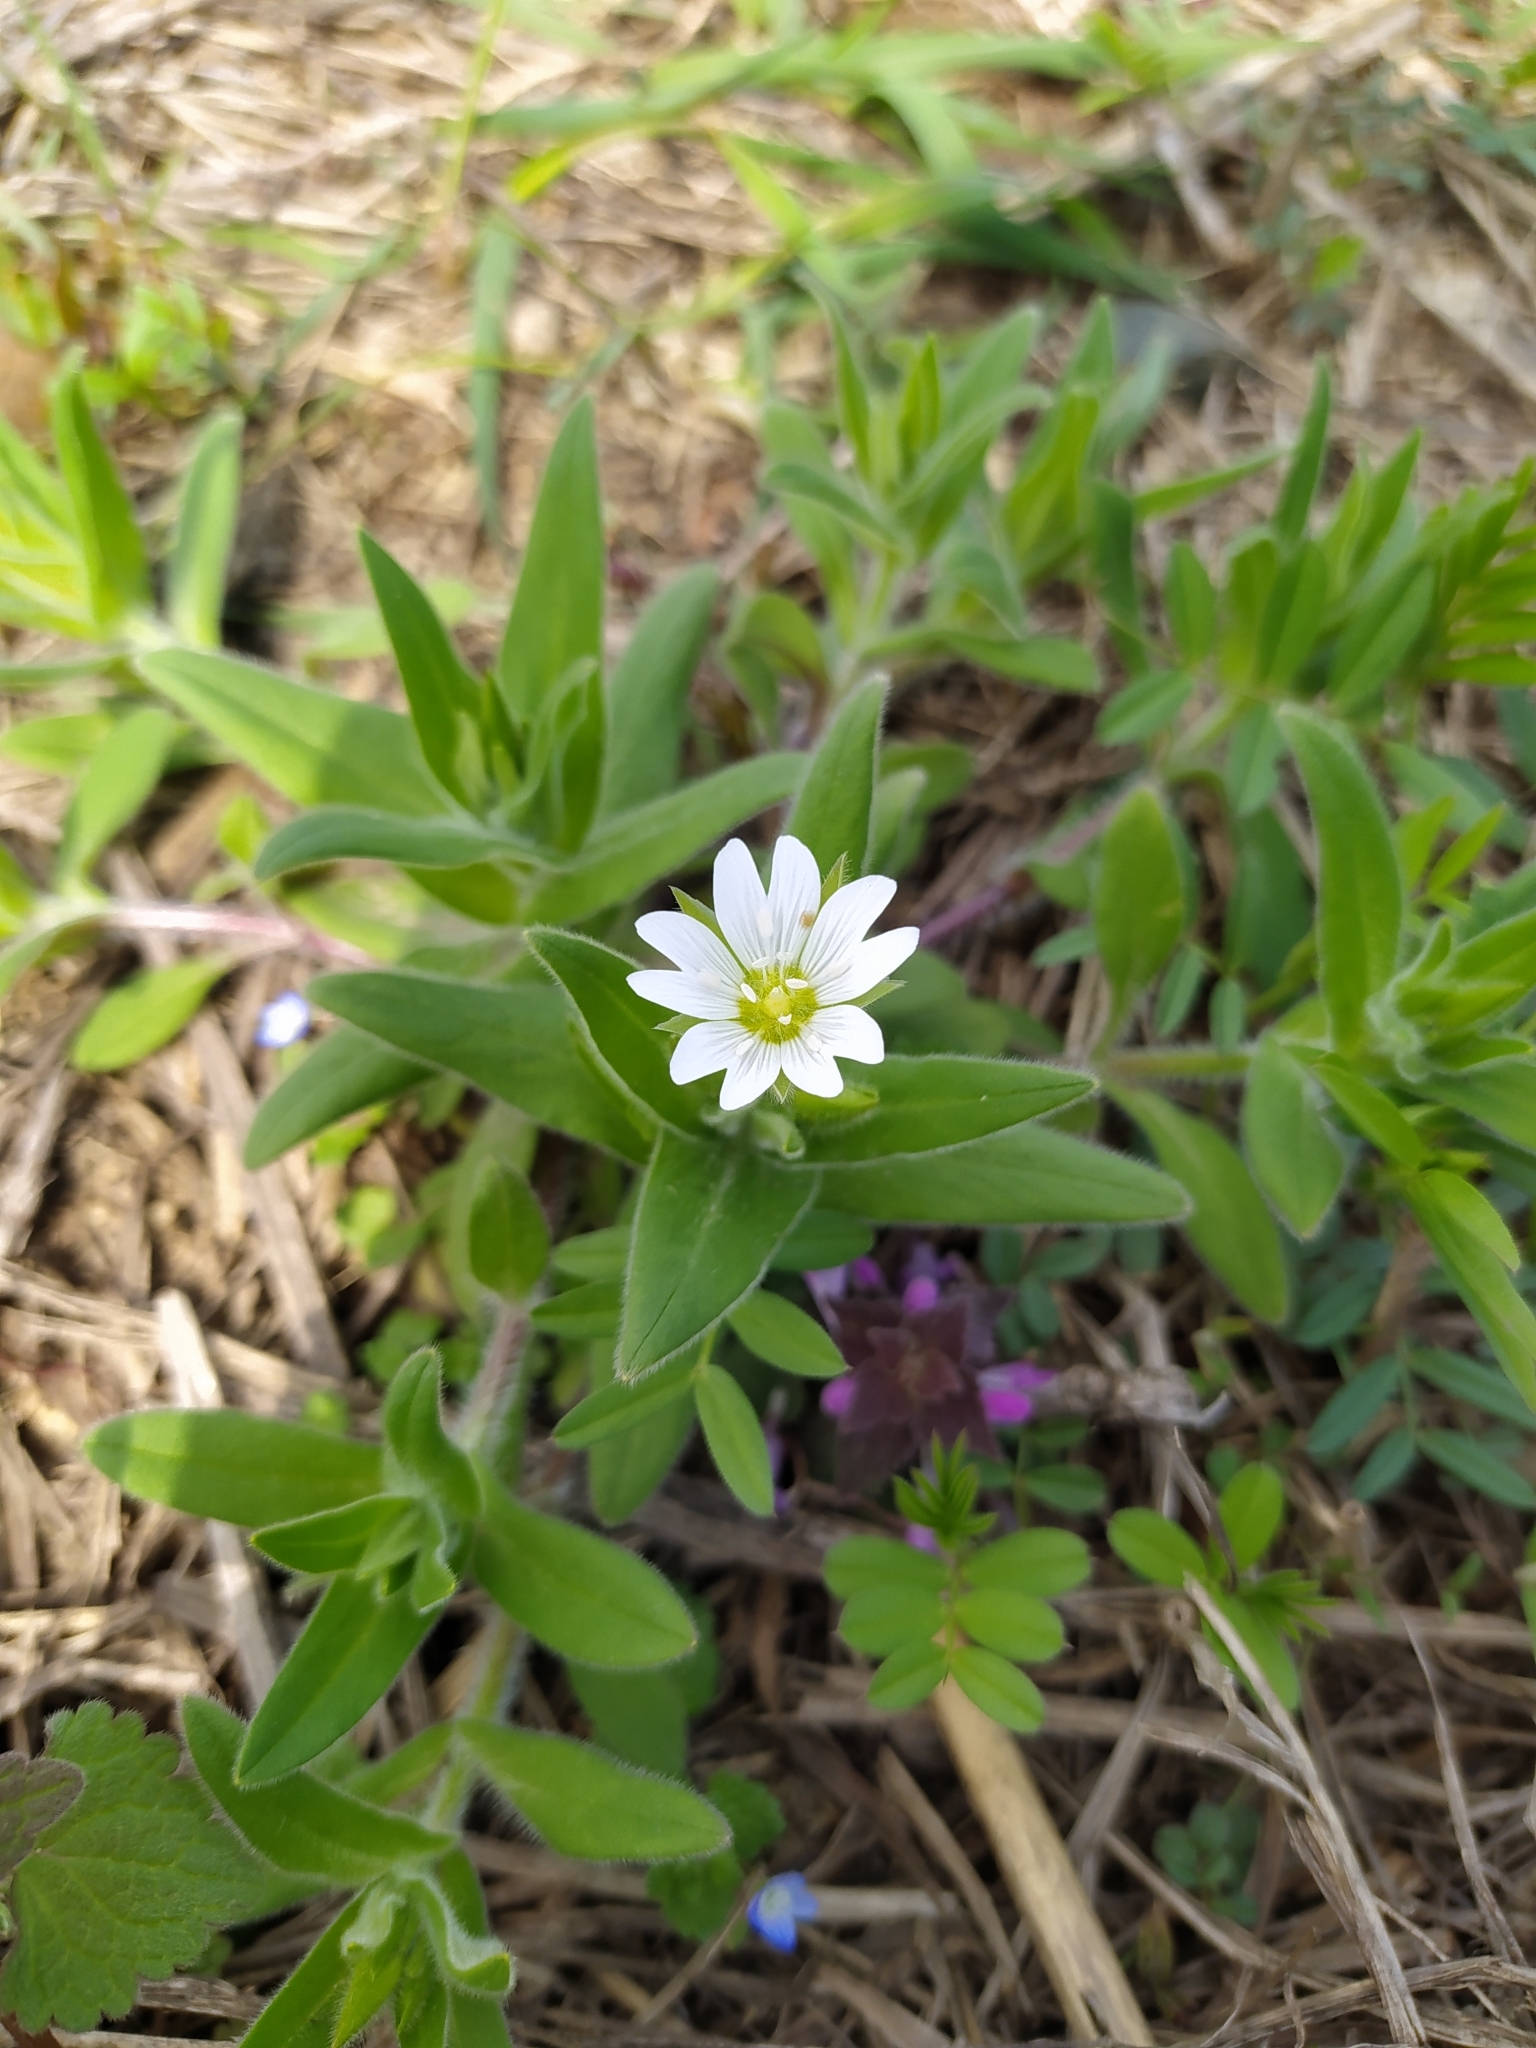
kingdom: Plantae
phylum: Tracheophyta
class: Magnoliopsida
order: Caryophyllales
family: Caryophyllaceae
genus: Cerastium
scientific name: Cerastium nemorale
